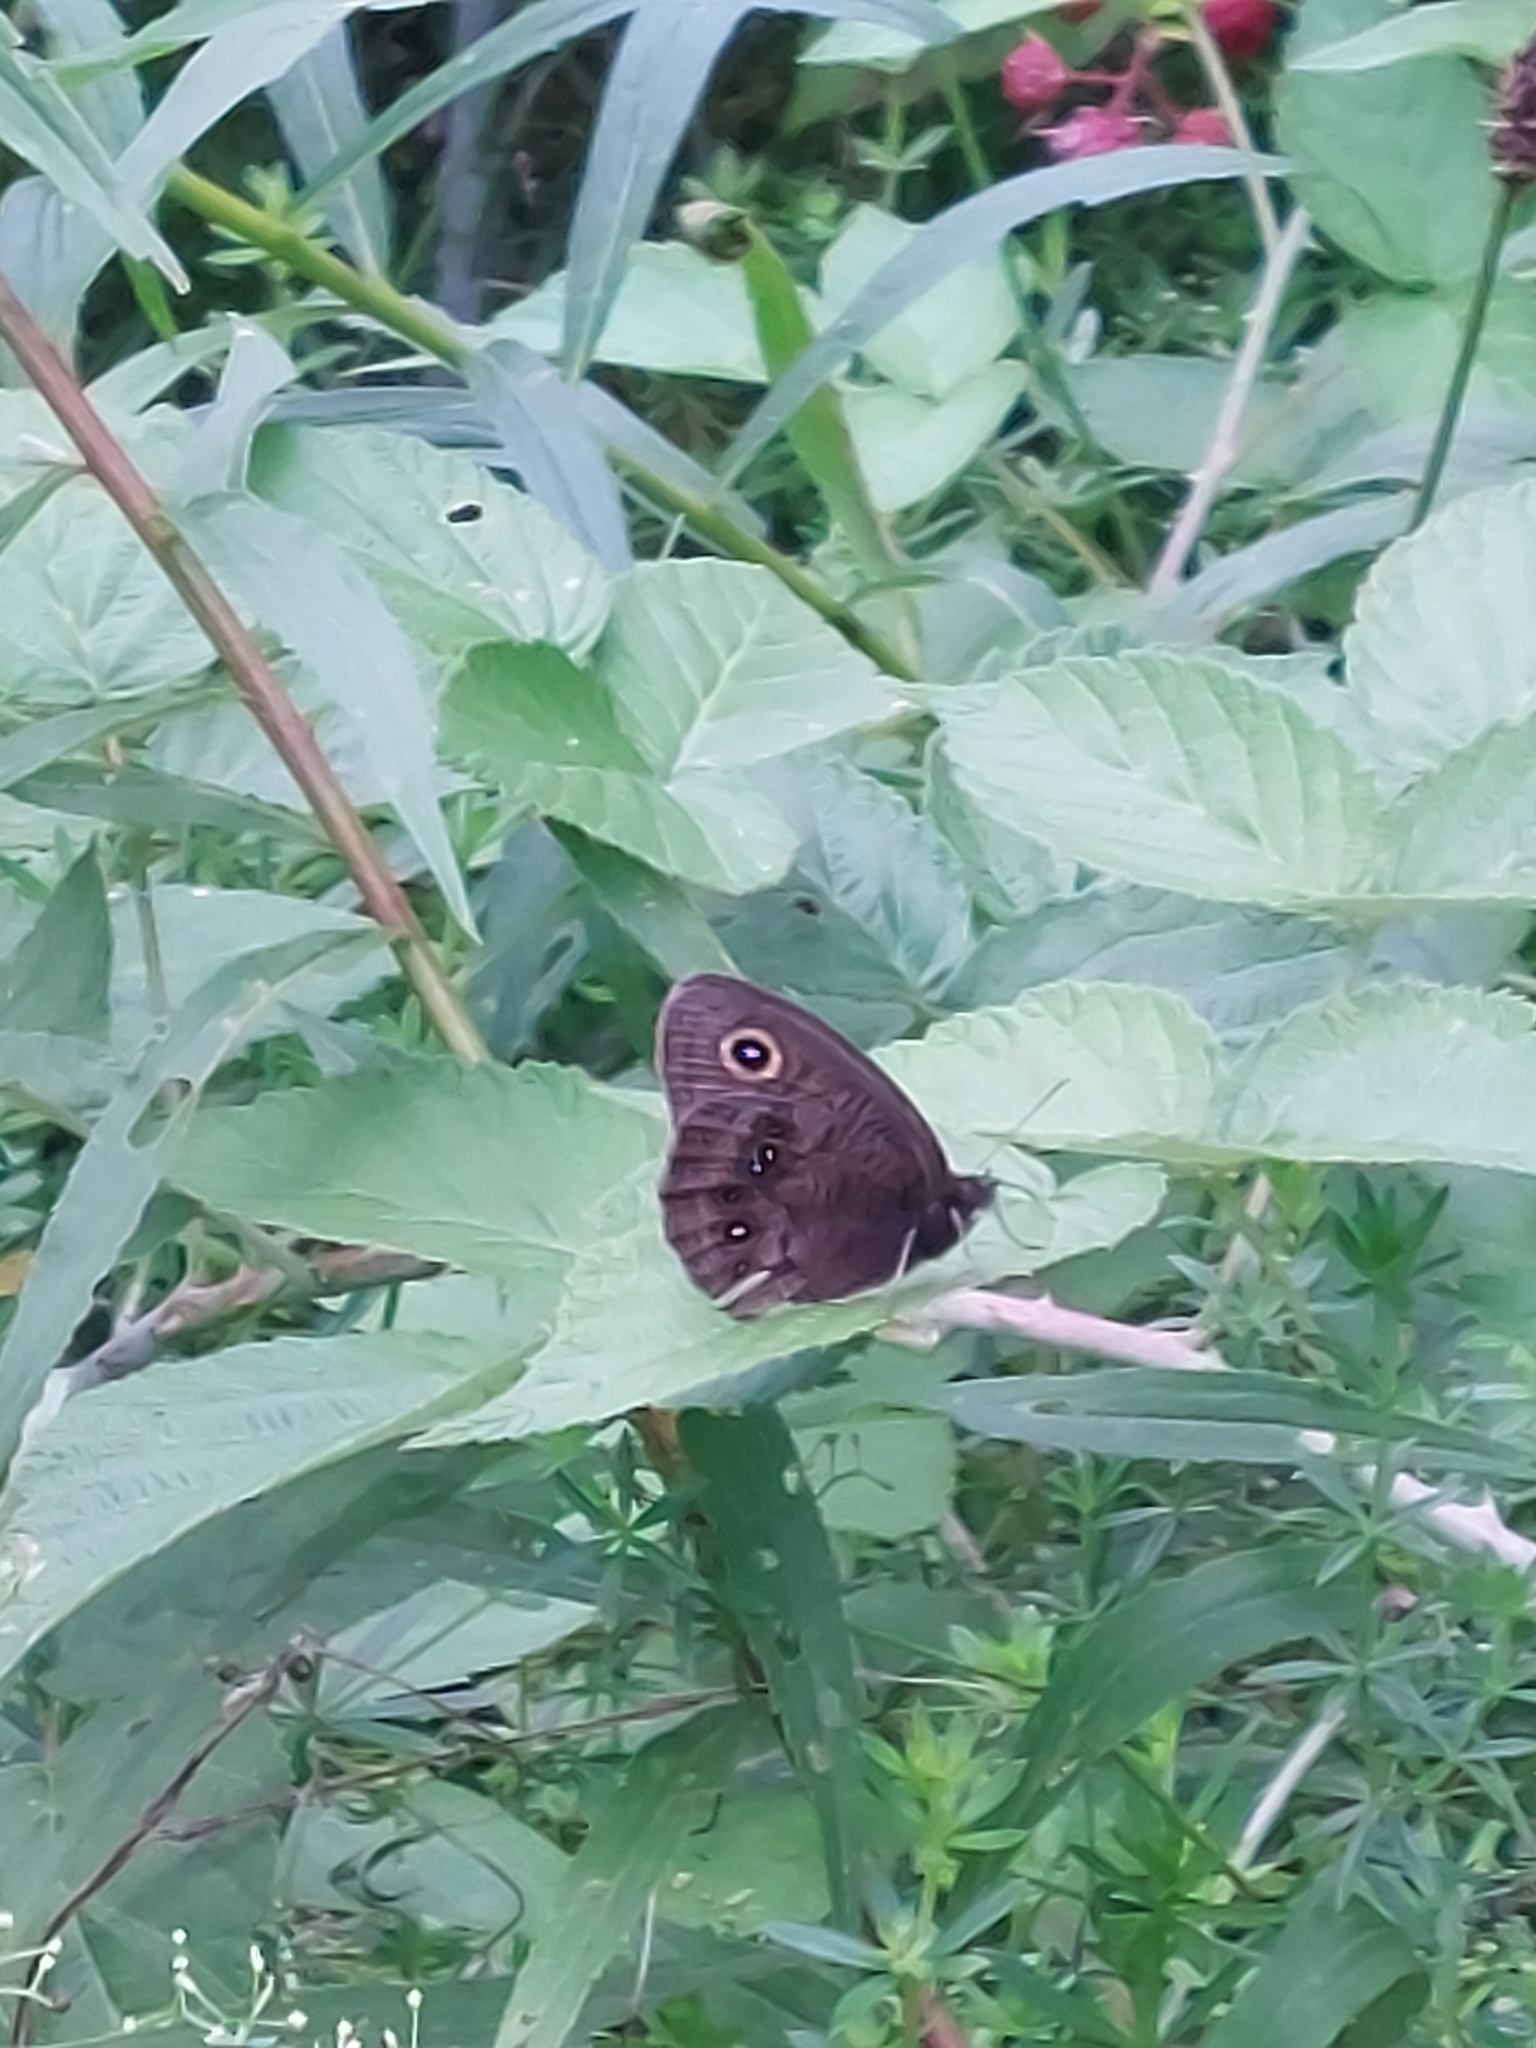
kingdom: Animalia
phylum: Arthropoda
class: Insecta
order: Lepidoptera
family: Nymphalidae
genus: Cercyonis
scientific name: Cercyonis pegala
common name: Common wood-nymph
